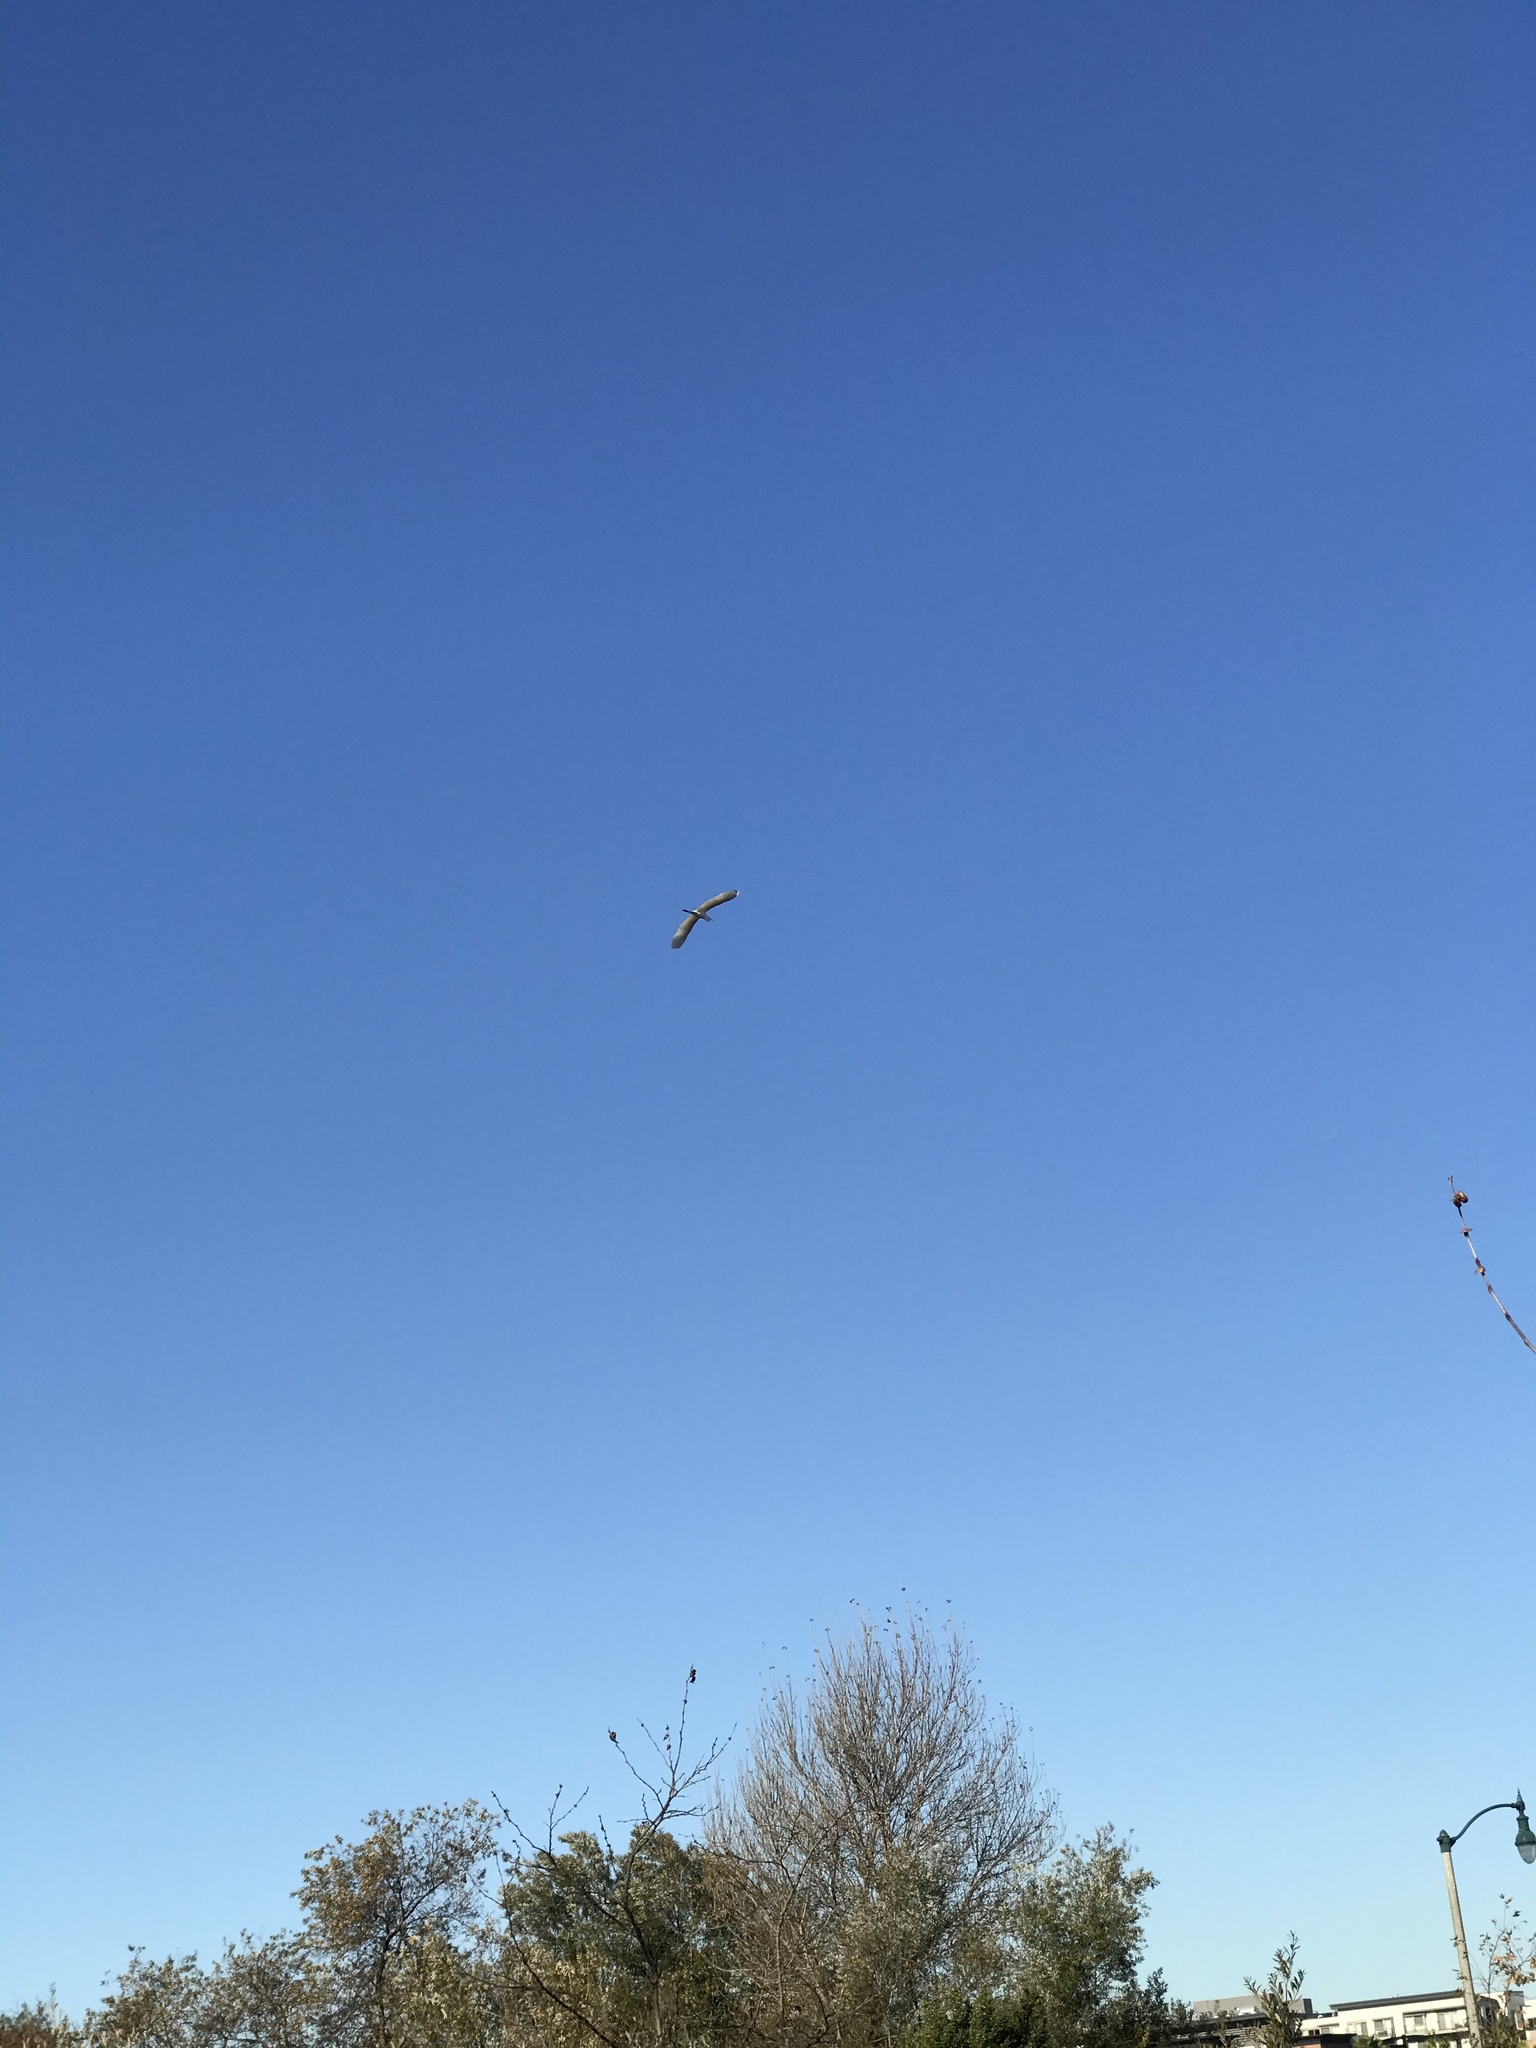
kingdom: Animalia
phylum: Chordata
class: Aves
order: Pelecaniformes
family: Ardeidae
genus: Ardea
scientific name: Ardea alba
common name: Great egret
